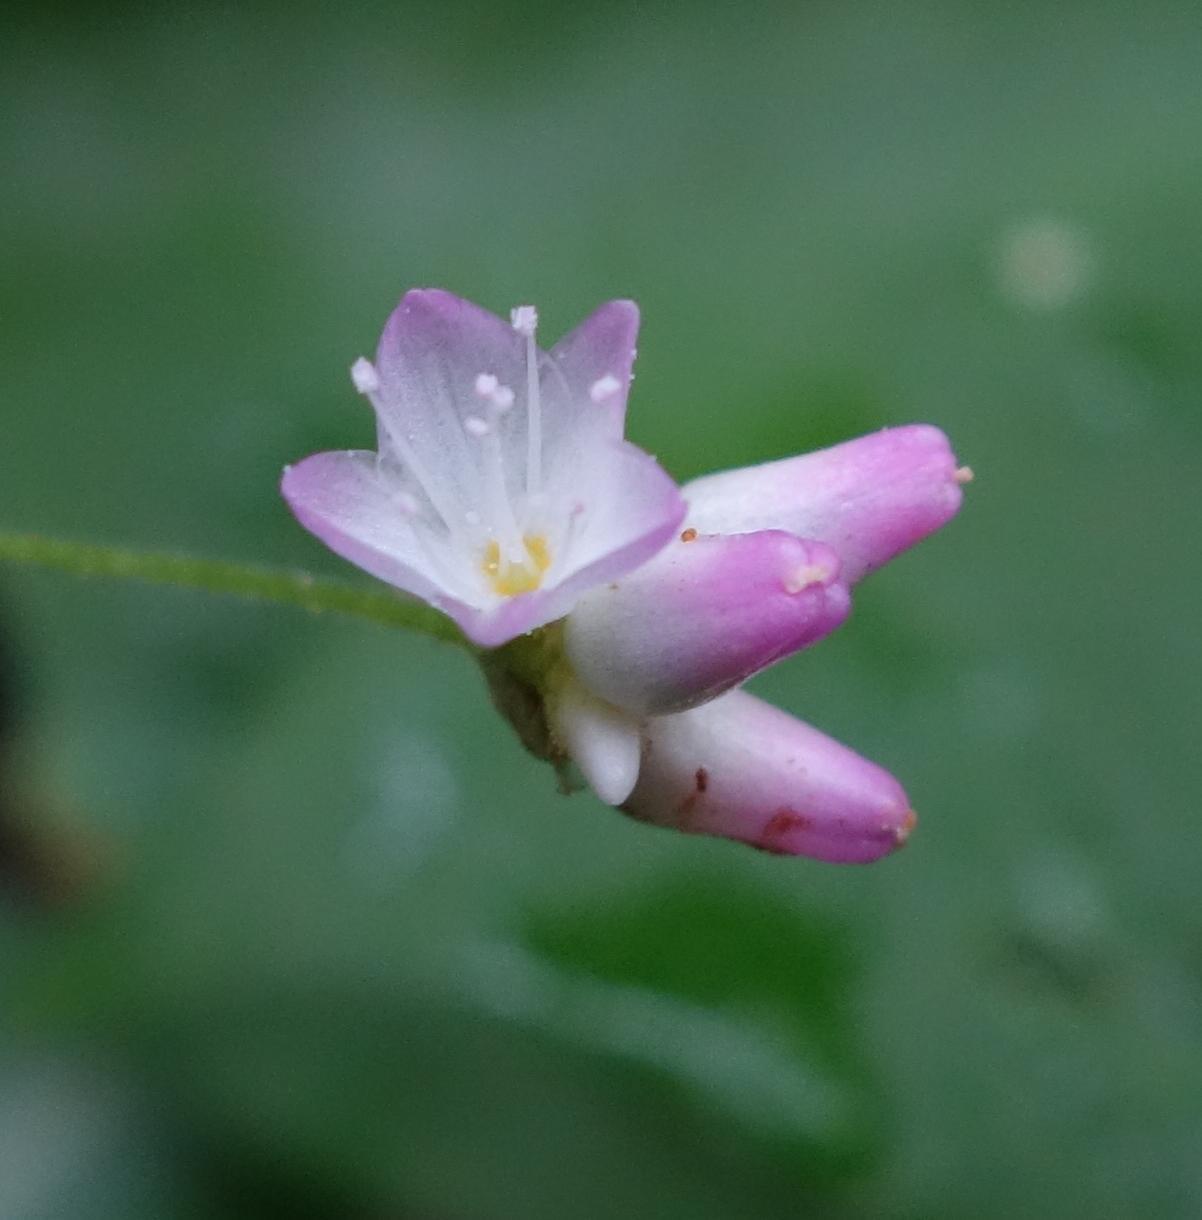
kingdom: Plantae
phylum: Tracheophyta
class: Magnoliopsida
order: Caryophyllales
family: Polygonaceae
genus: Persicaria
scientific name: Persicaria senticosa
